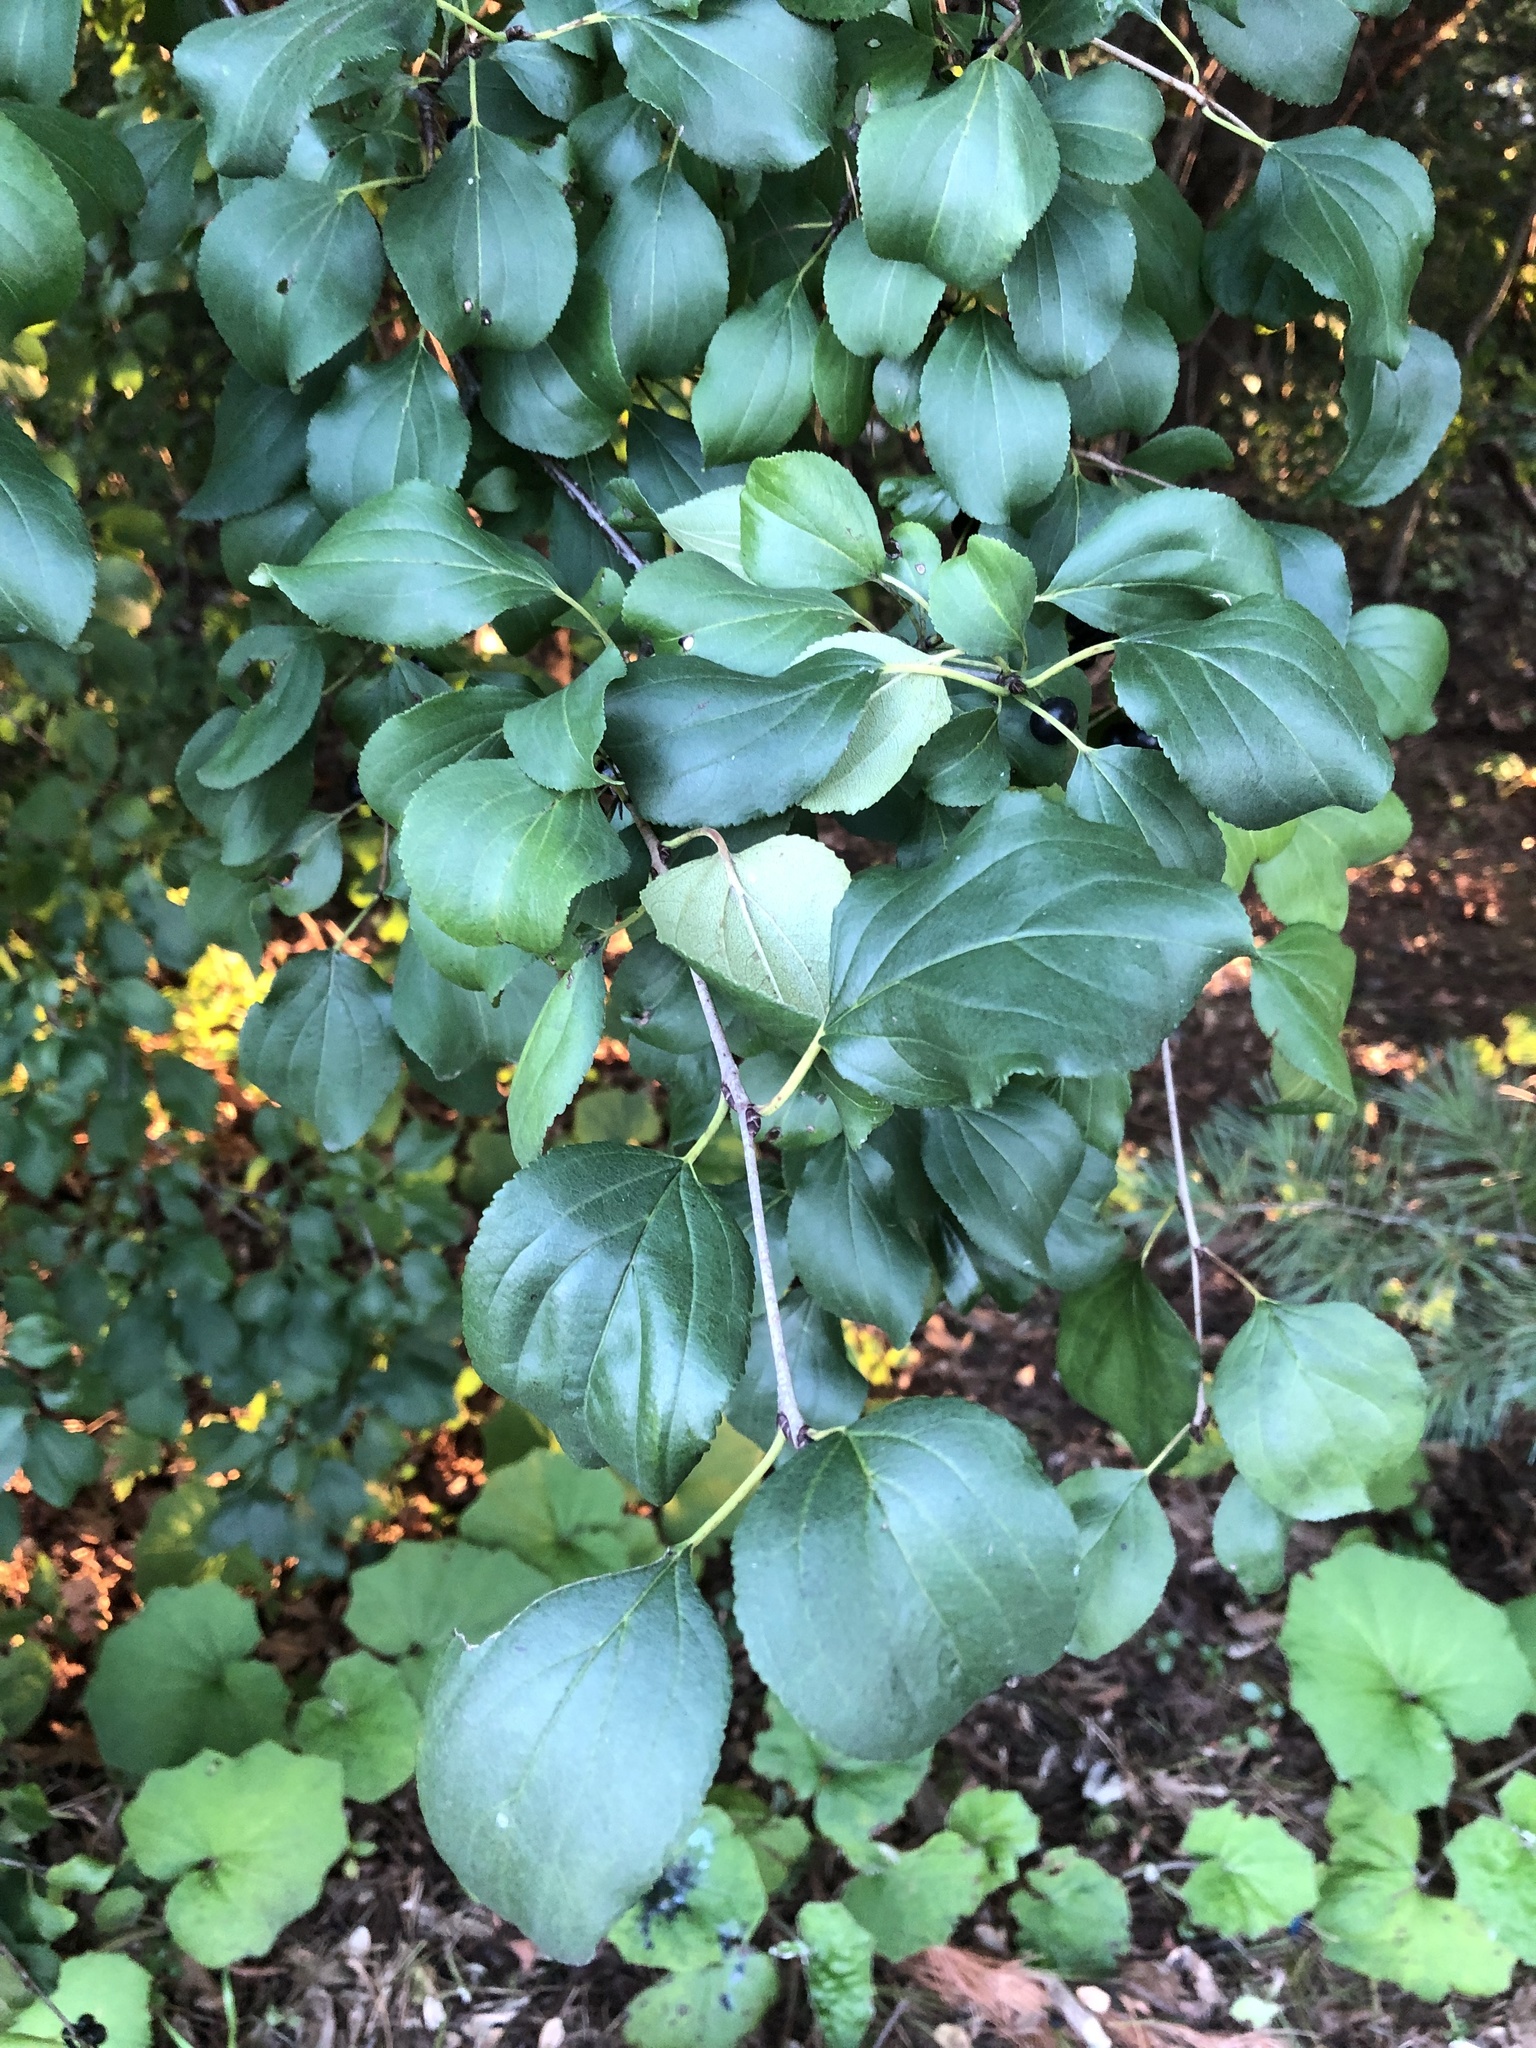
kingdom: Plantae
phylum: Tracheophyta
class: Magnoliopsida
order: Rosales
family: Rhamnaceae
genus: Rhamnus
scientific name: Rhamnus cathartica
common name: Common buckthorn
